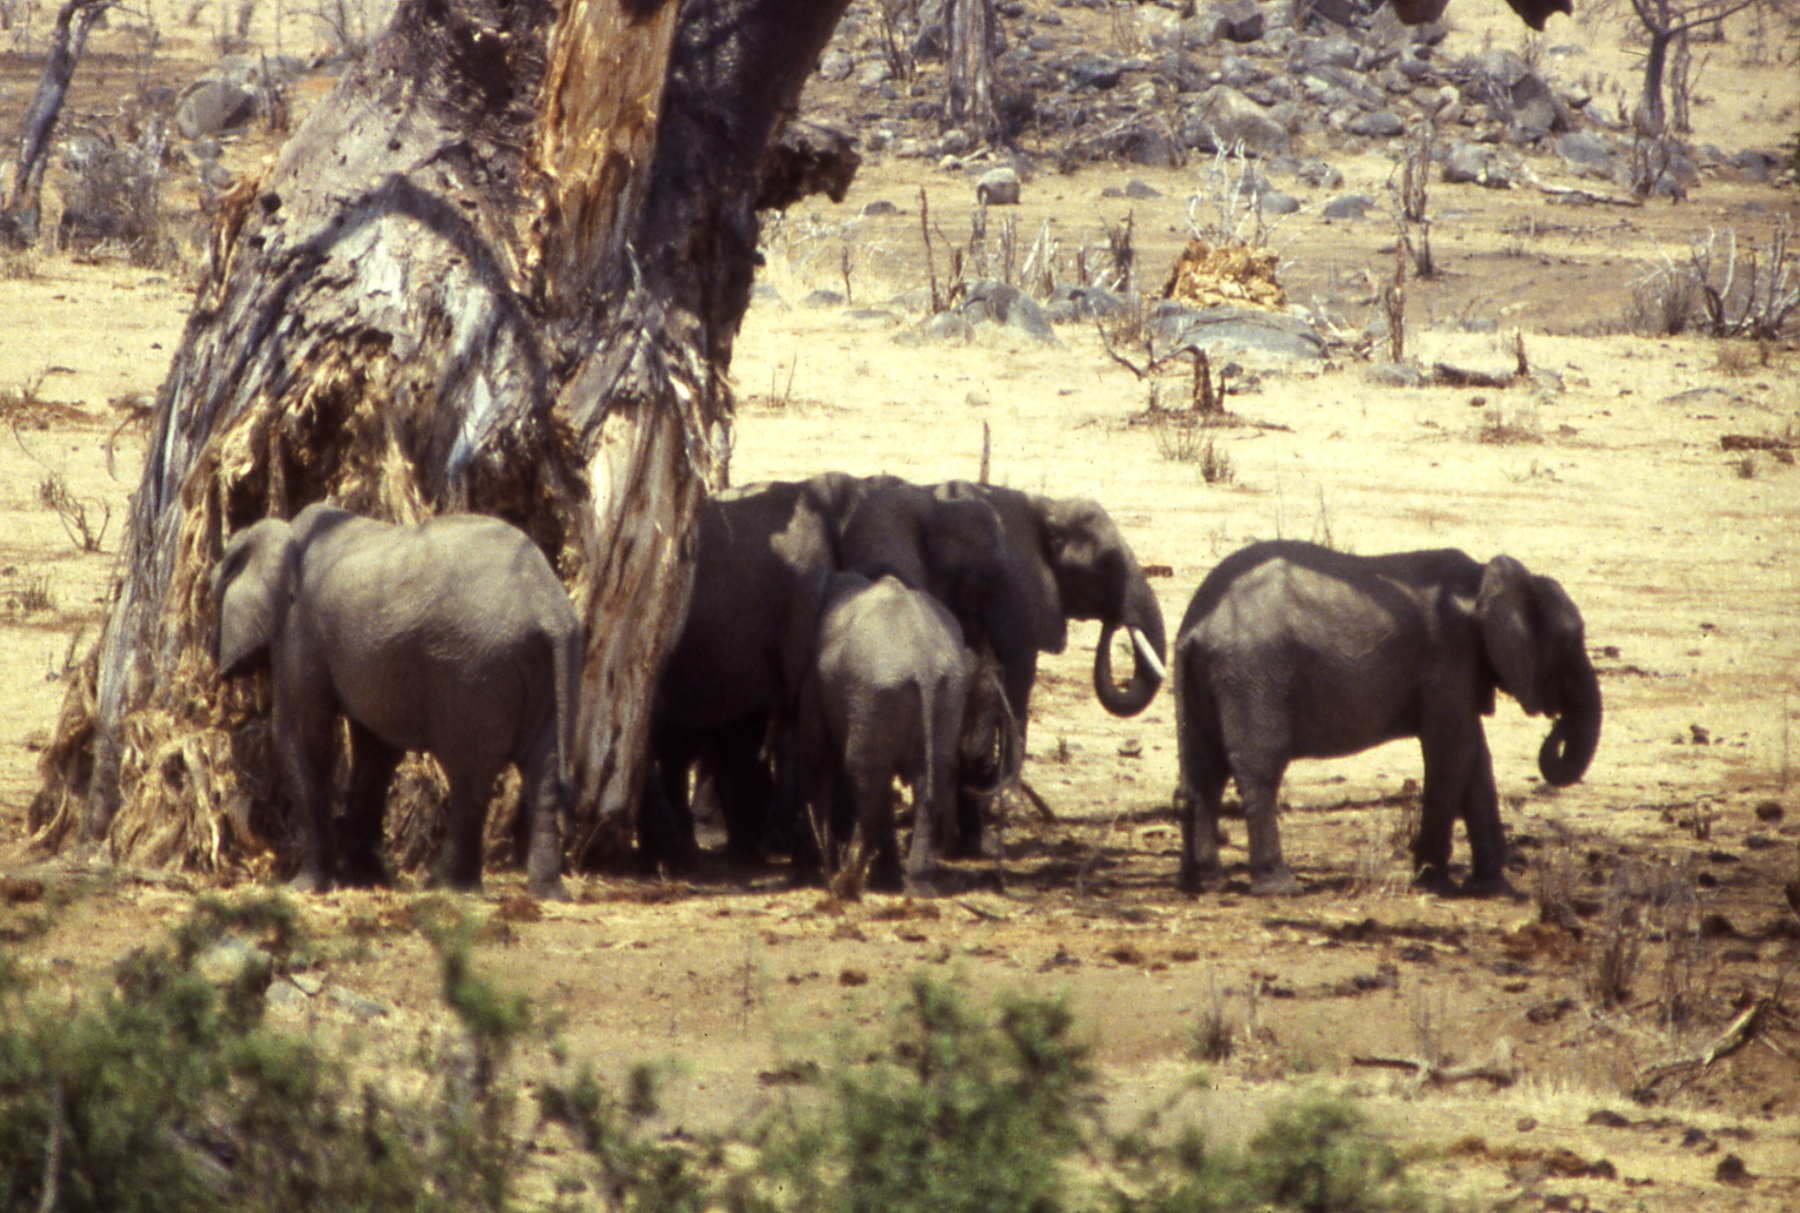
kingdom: Animalia
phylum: Chordata
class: Mammalia
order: Proboscidea
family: Elephantidae
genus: Loxodonta
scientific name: Loxodonta africana
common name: African elephant
